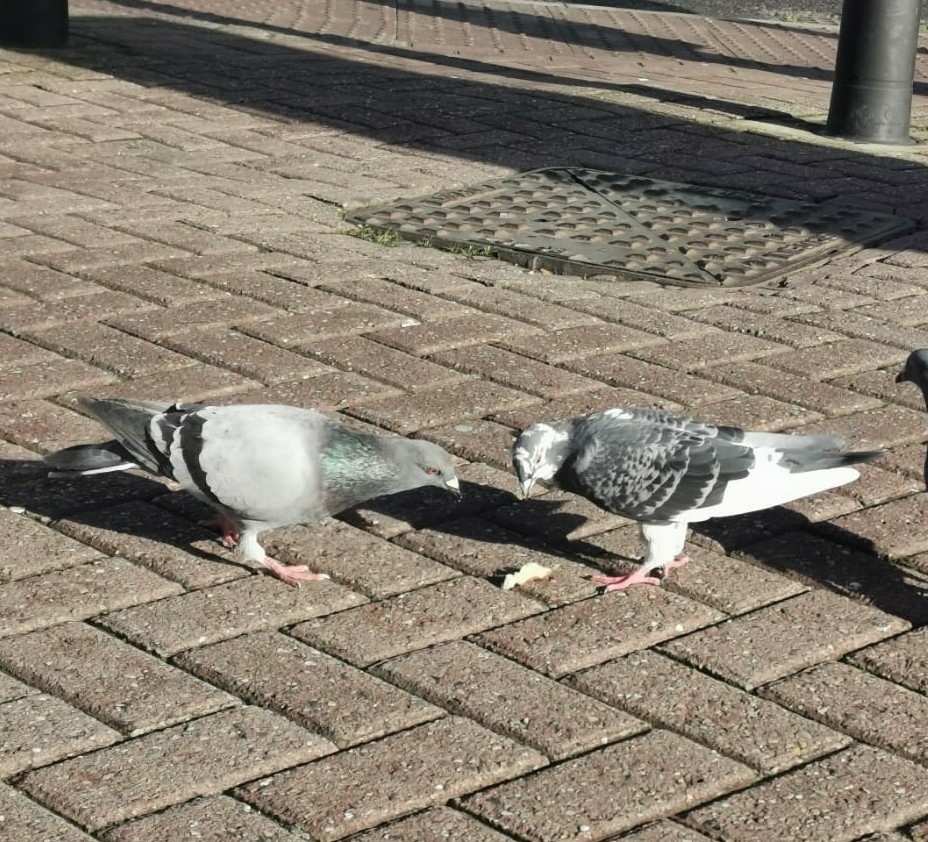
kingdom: Animalia
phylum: Chordata
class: Aves
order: Columbiformes
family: Columbidae
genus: Columba
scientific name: Columba livia
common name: Rock pigeon
